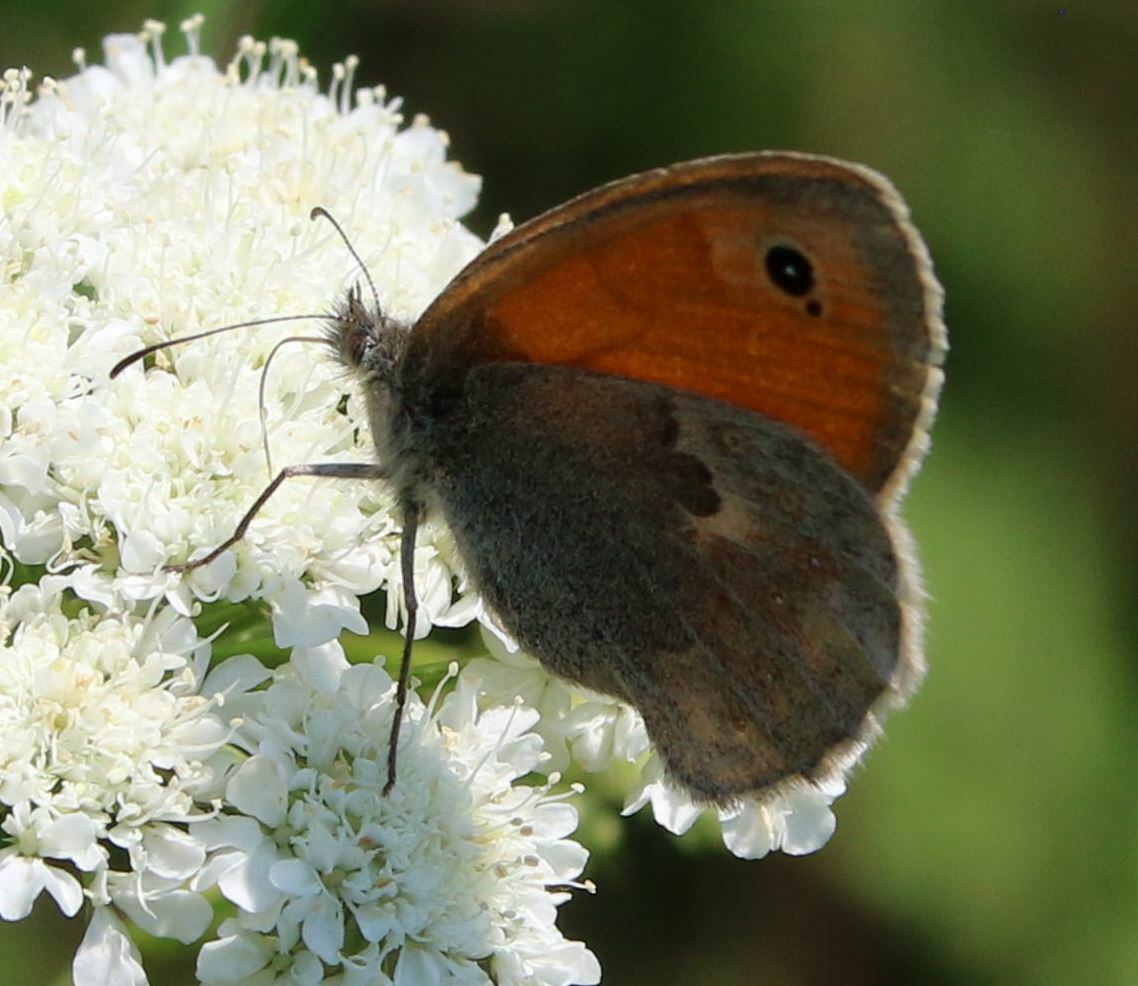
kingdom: Animalia
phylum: Arthropoda
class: Insecta
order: Lepidoptera
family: Nymphalidae
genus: Coenonympha
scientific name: Coenonympha pamphilus
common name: Small heath
